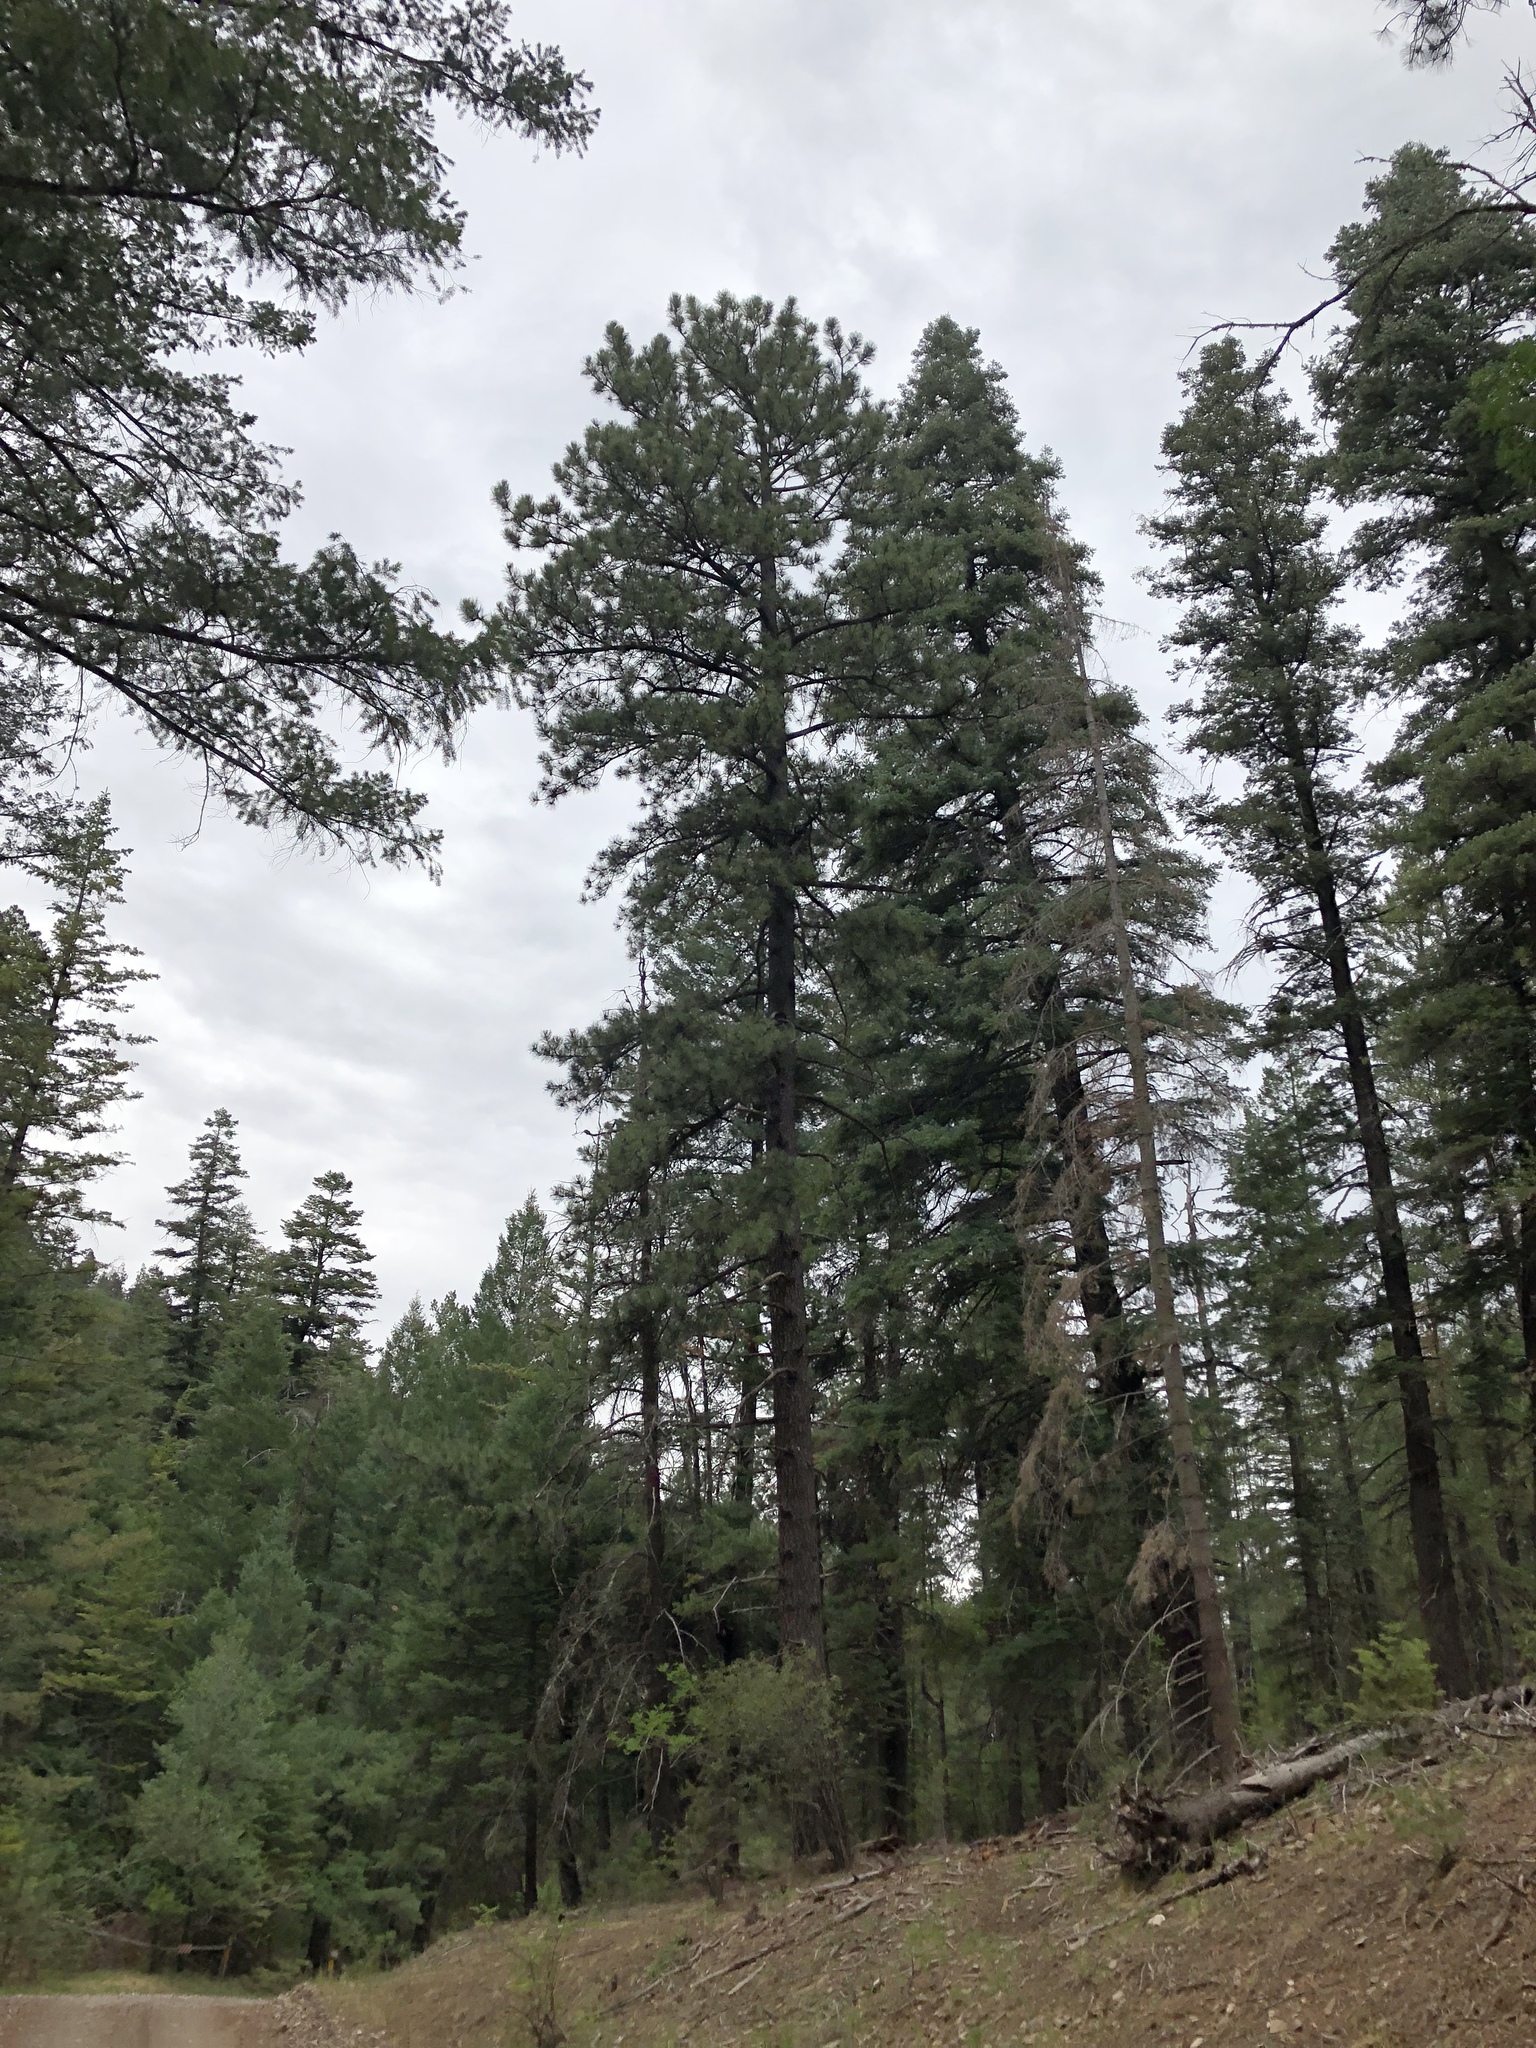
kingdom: Plantae
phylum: Tracheophyta
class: Pinopsida
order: Pinales
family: Pinaceae
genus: Pinus
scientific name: Pinus ponderosa
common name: Western yellow-pine
